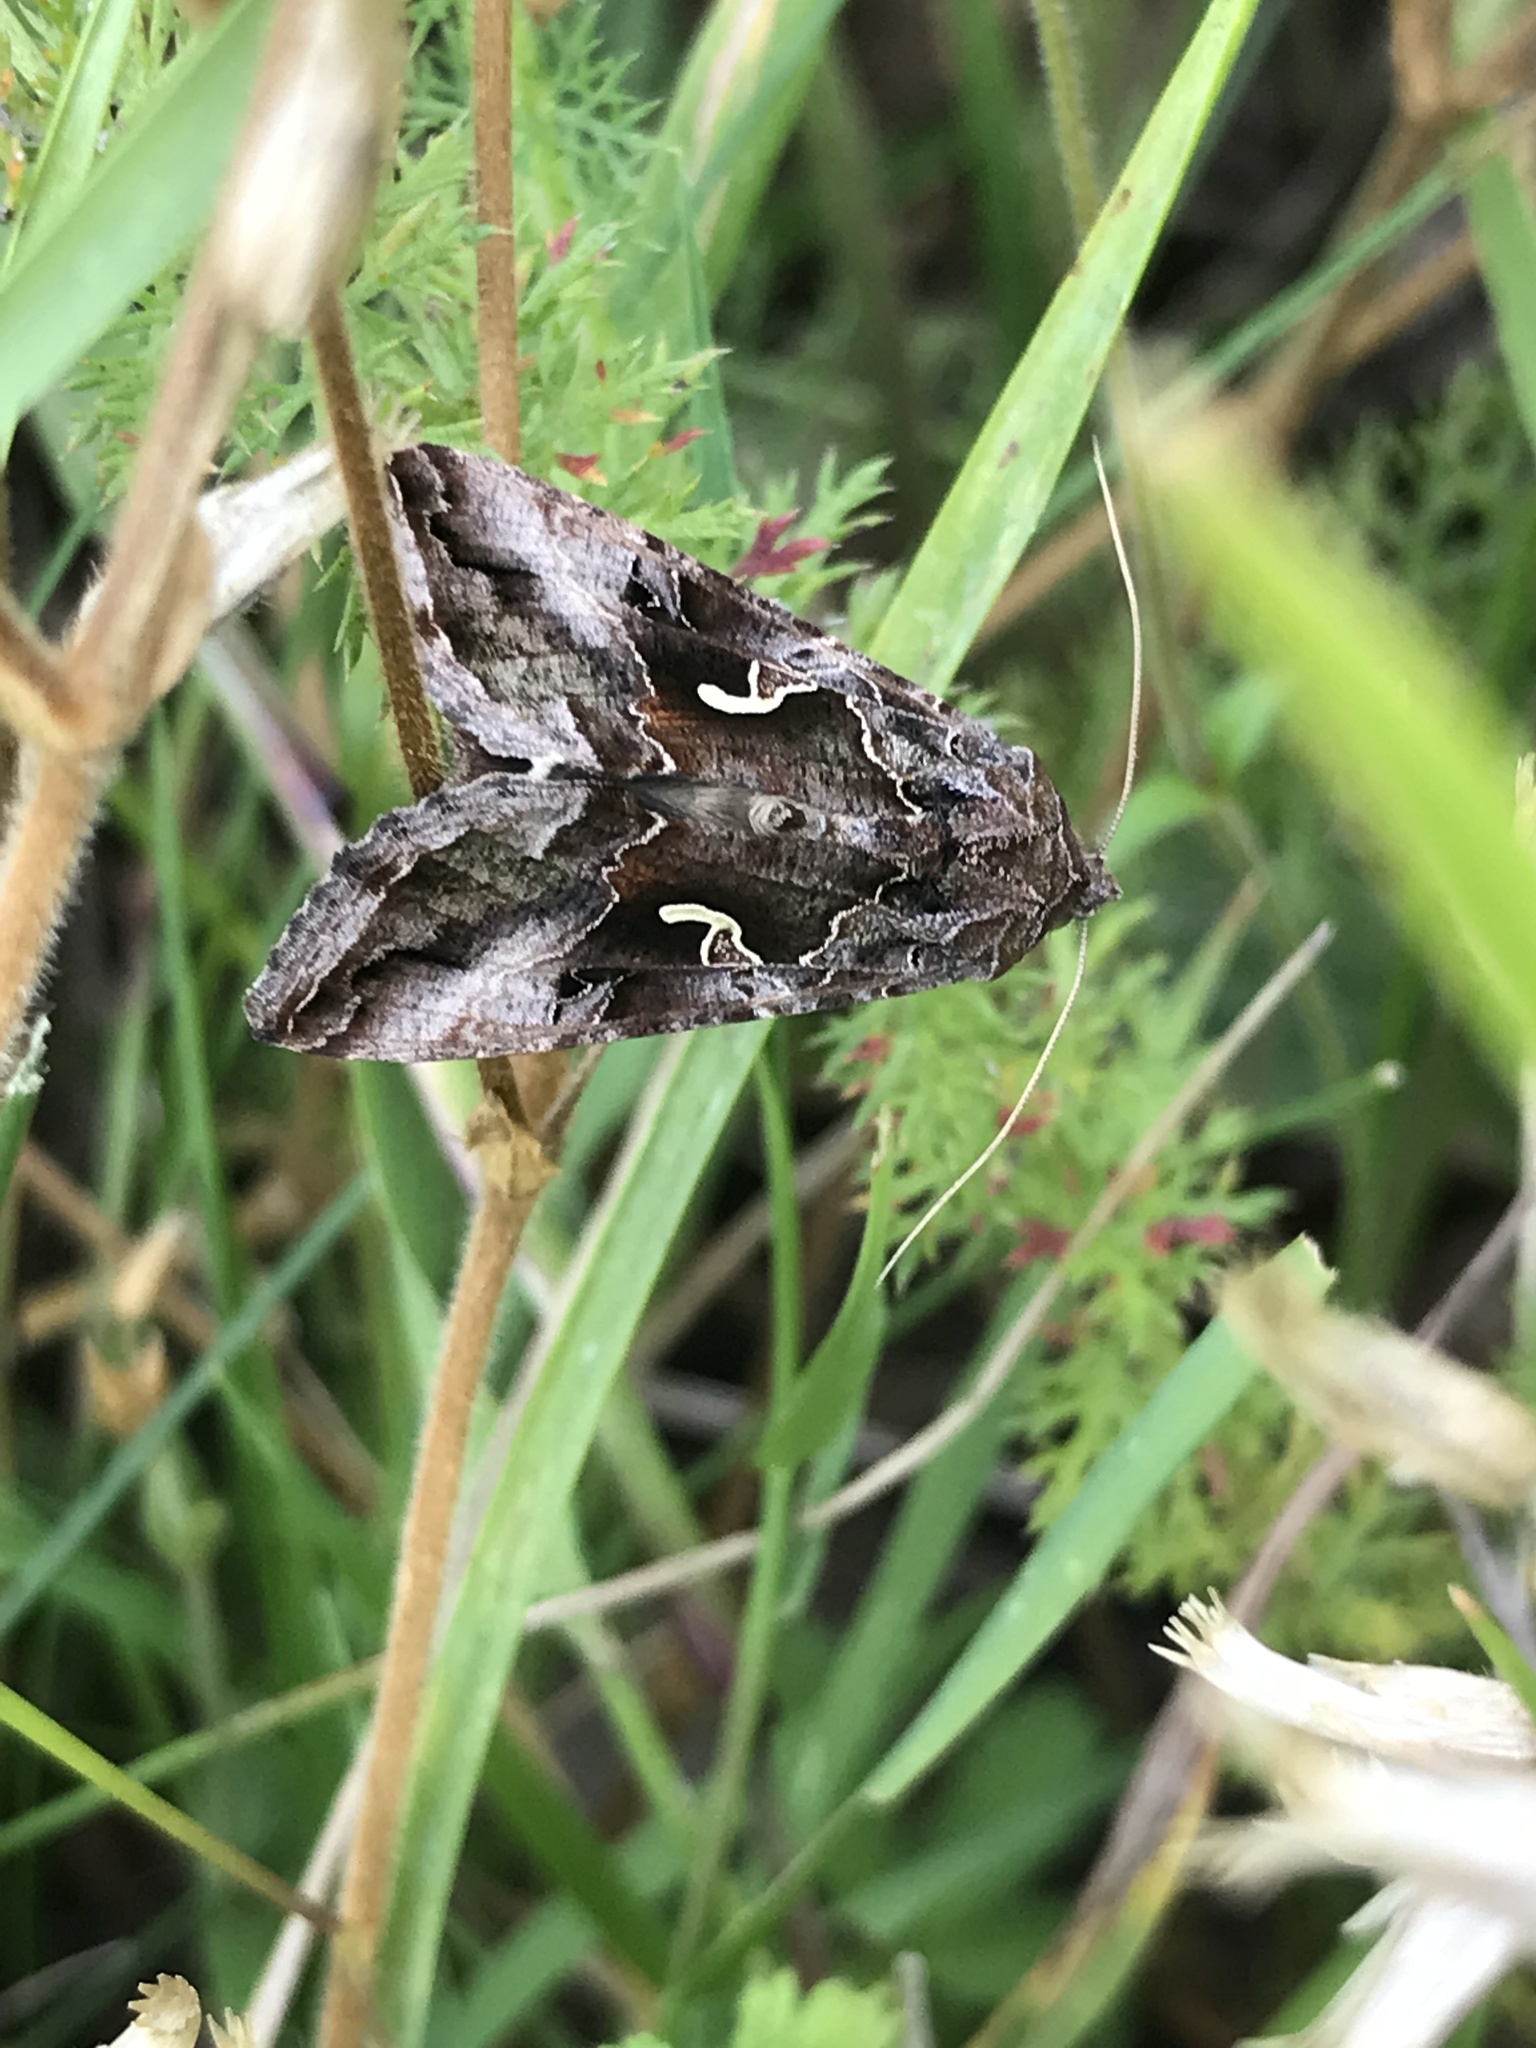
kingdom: Animalia
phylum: Arthropoda
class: Insecta
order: Lepidoptera
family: Noctuidae
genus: Autographa
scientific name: Autographa gamma
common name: Silver y
